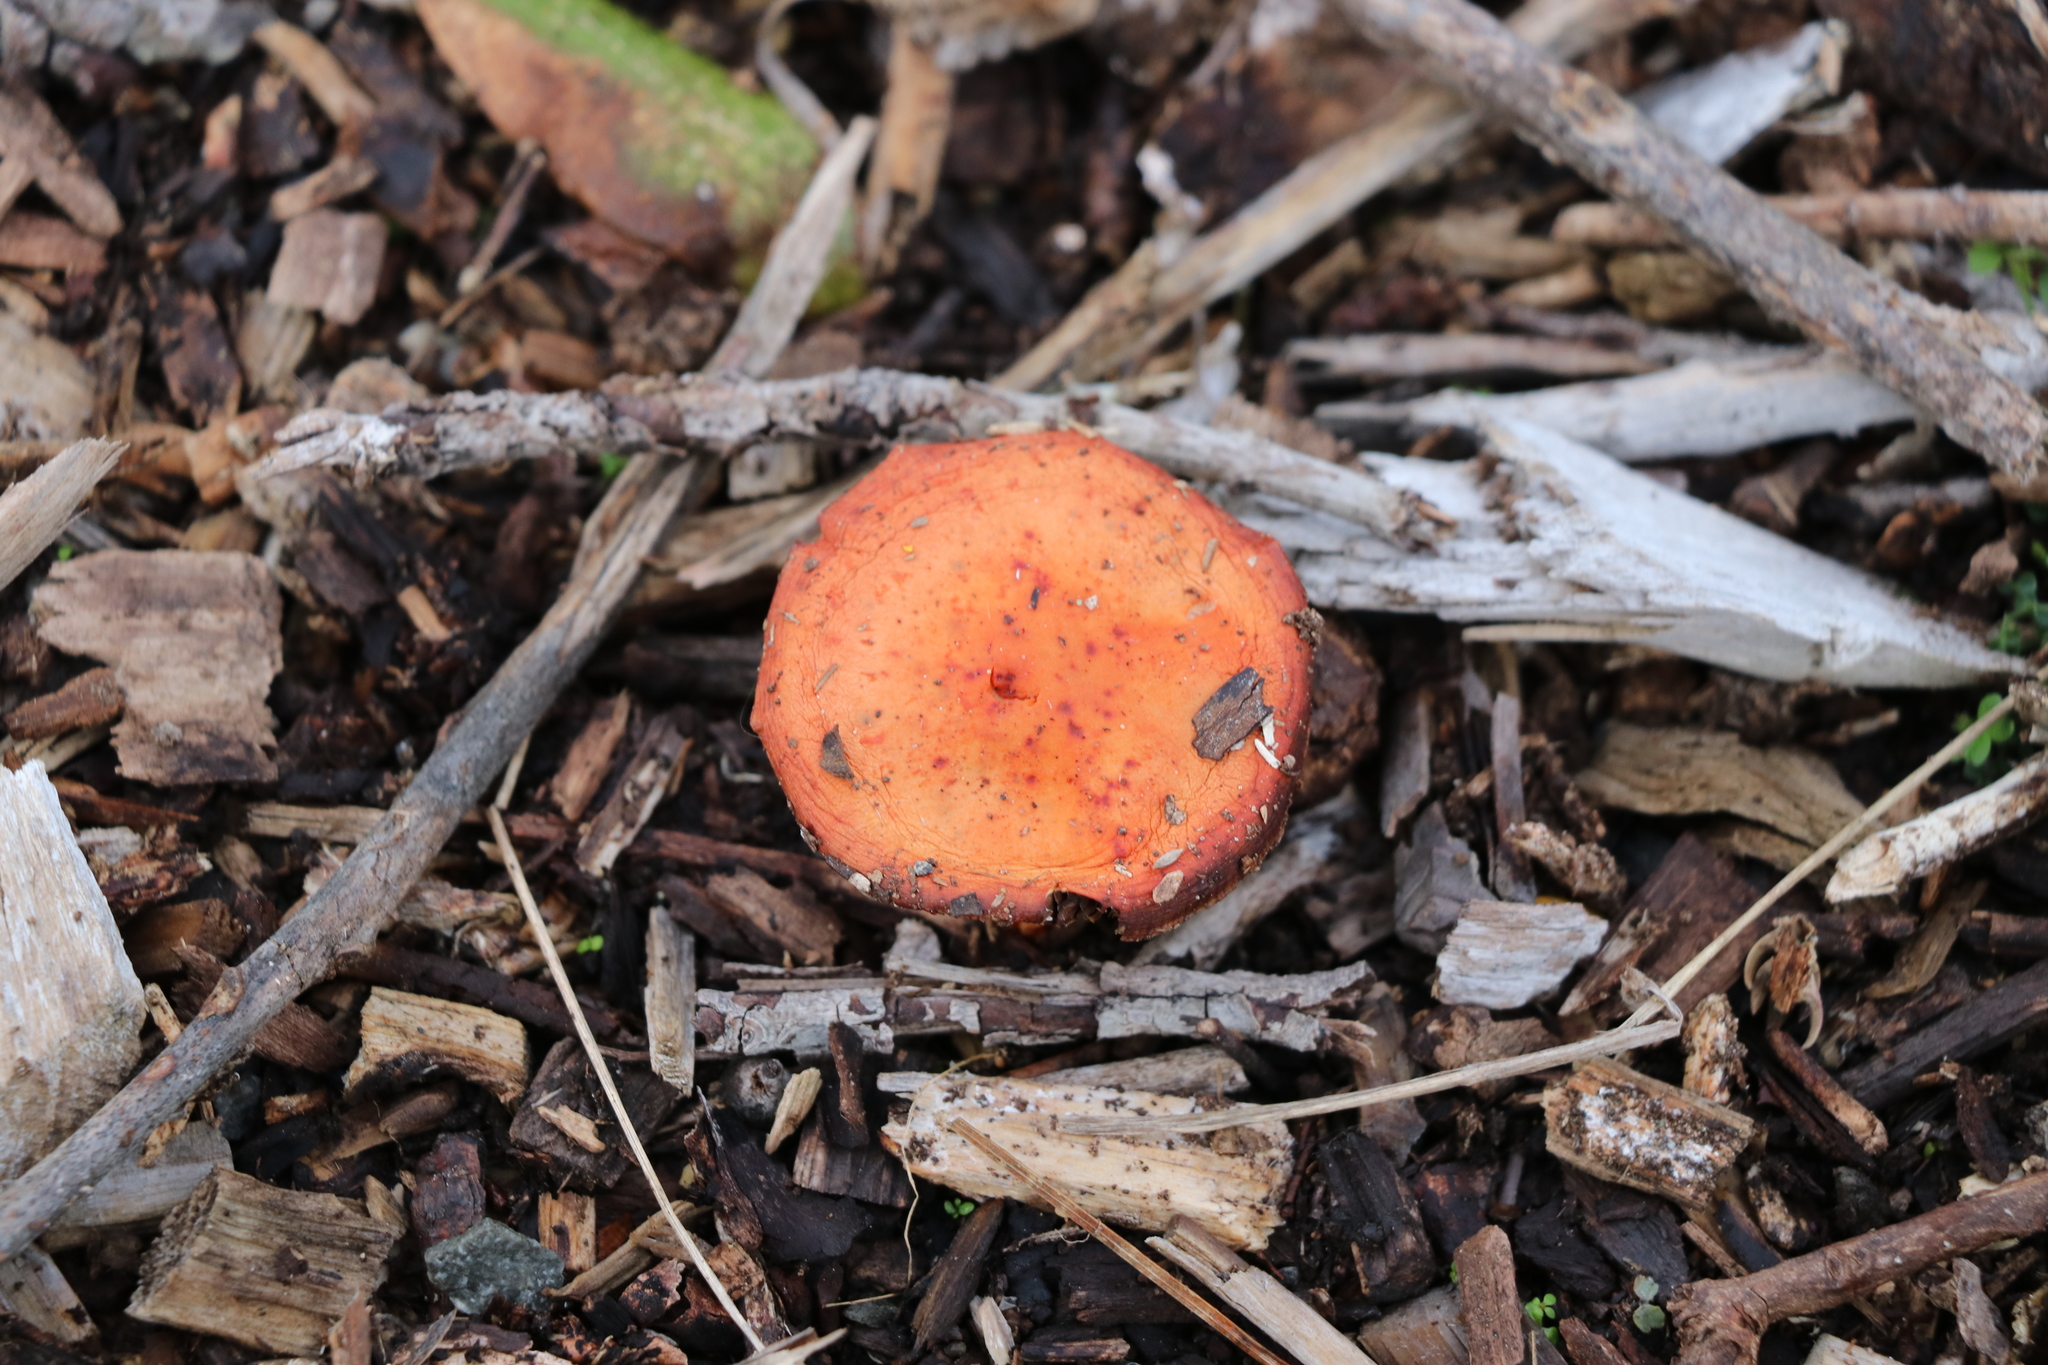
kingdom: Fungi
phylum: Basidiomycota
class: Agaricomycetes
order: Agaricales
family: Strophariaceae
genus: Leratiomyces
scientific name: Leratiomyces ceres
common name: Redlead roundhead
